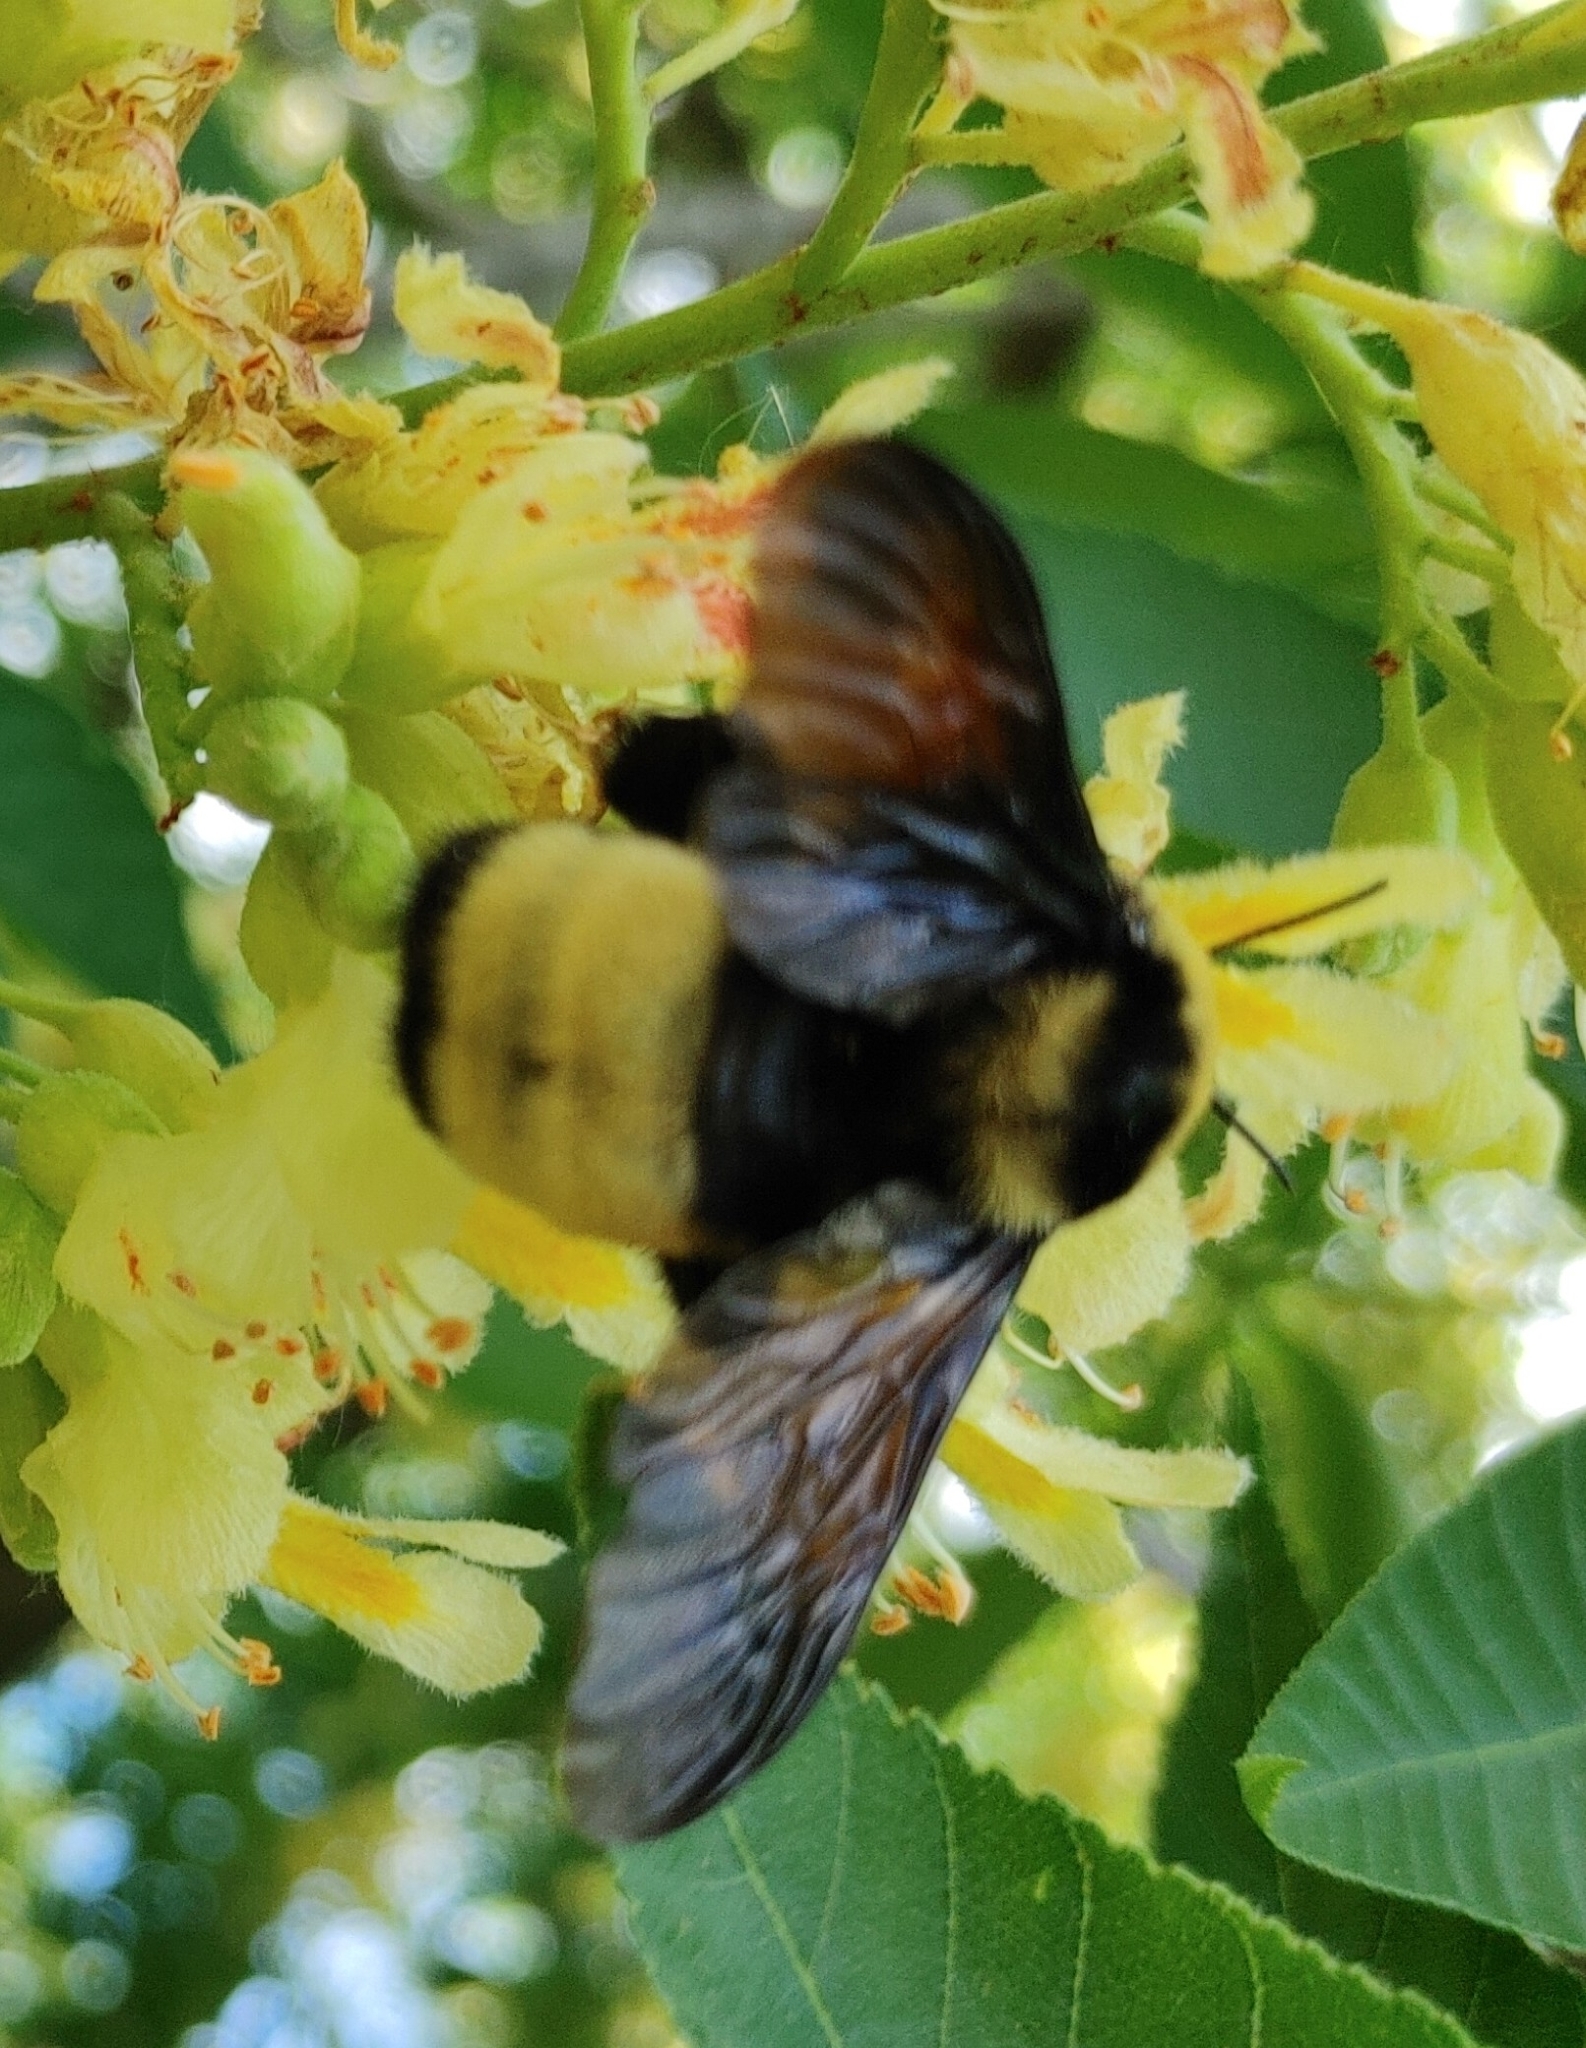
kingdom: Animalia
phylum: Arthropoda
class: Insecta
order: Hymenoptera
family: Apidae
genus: Bombus
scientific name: Bombus auricomus
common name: Black and gold bumble bee
